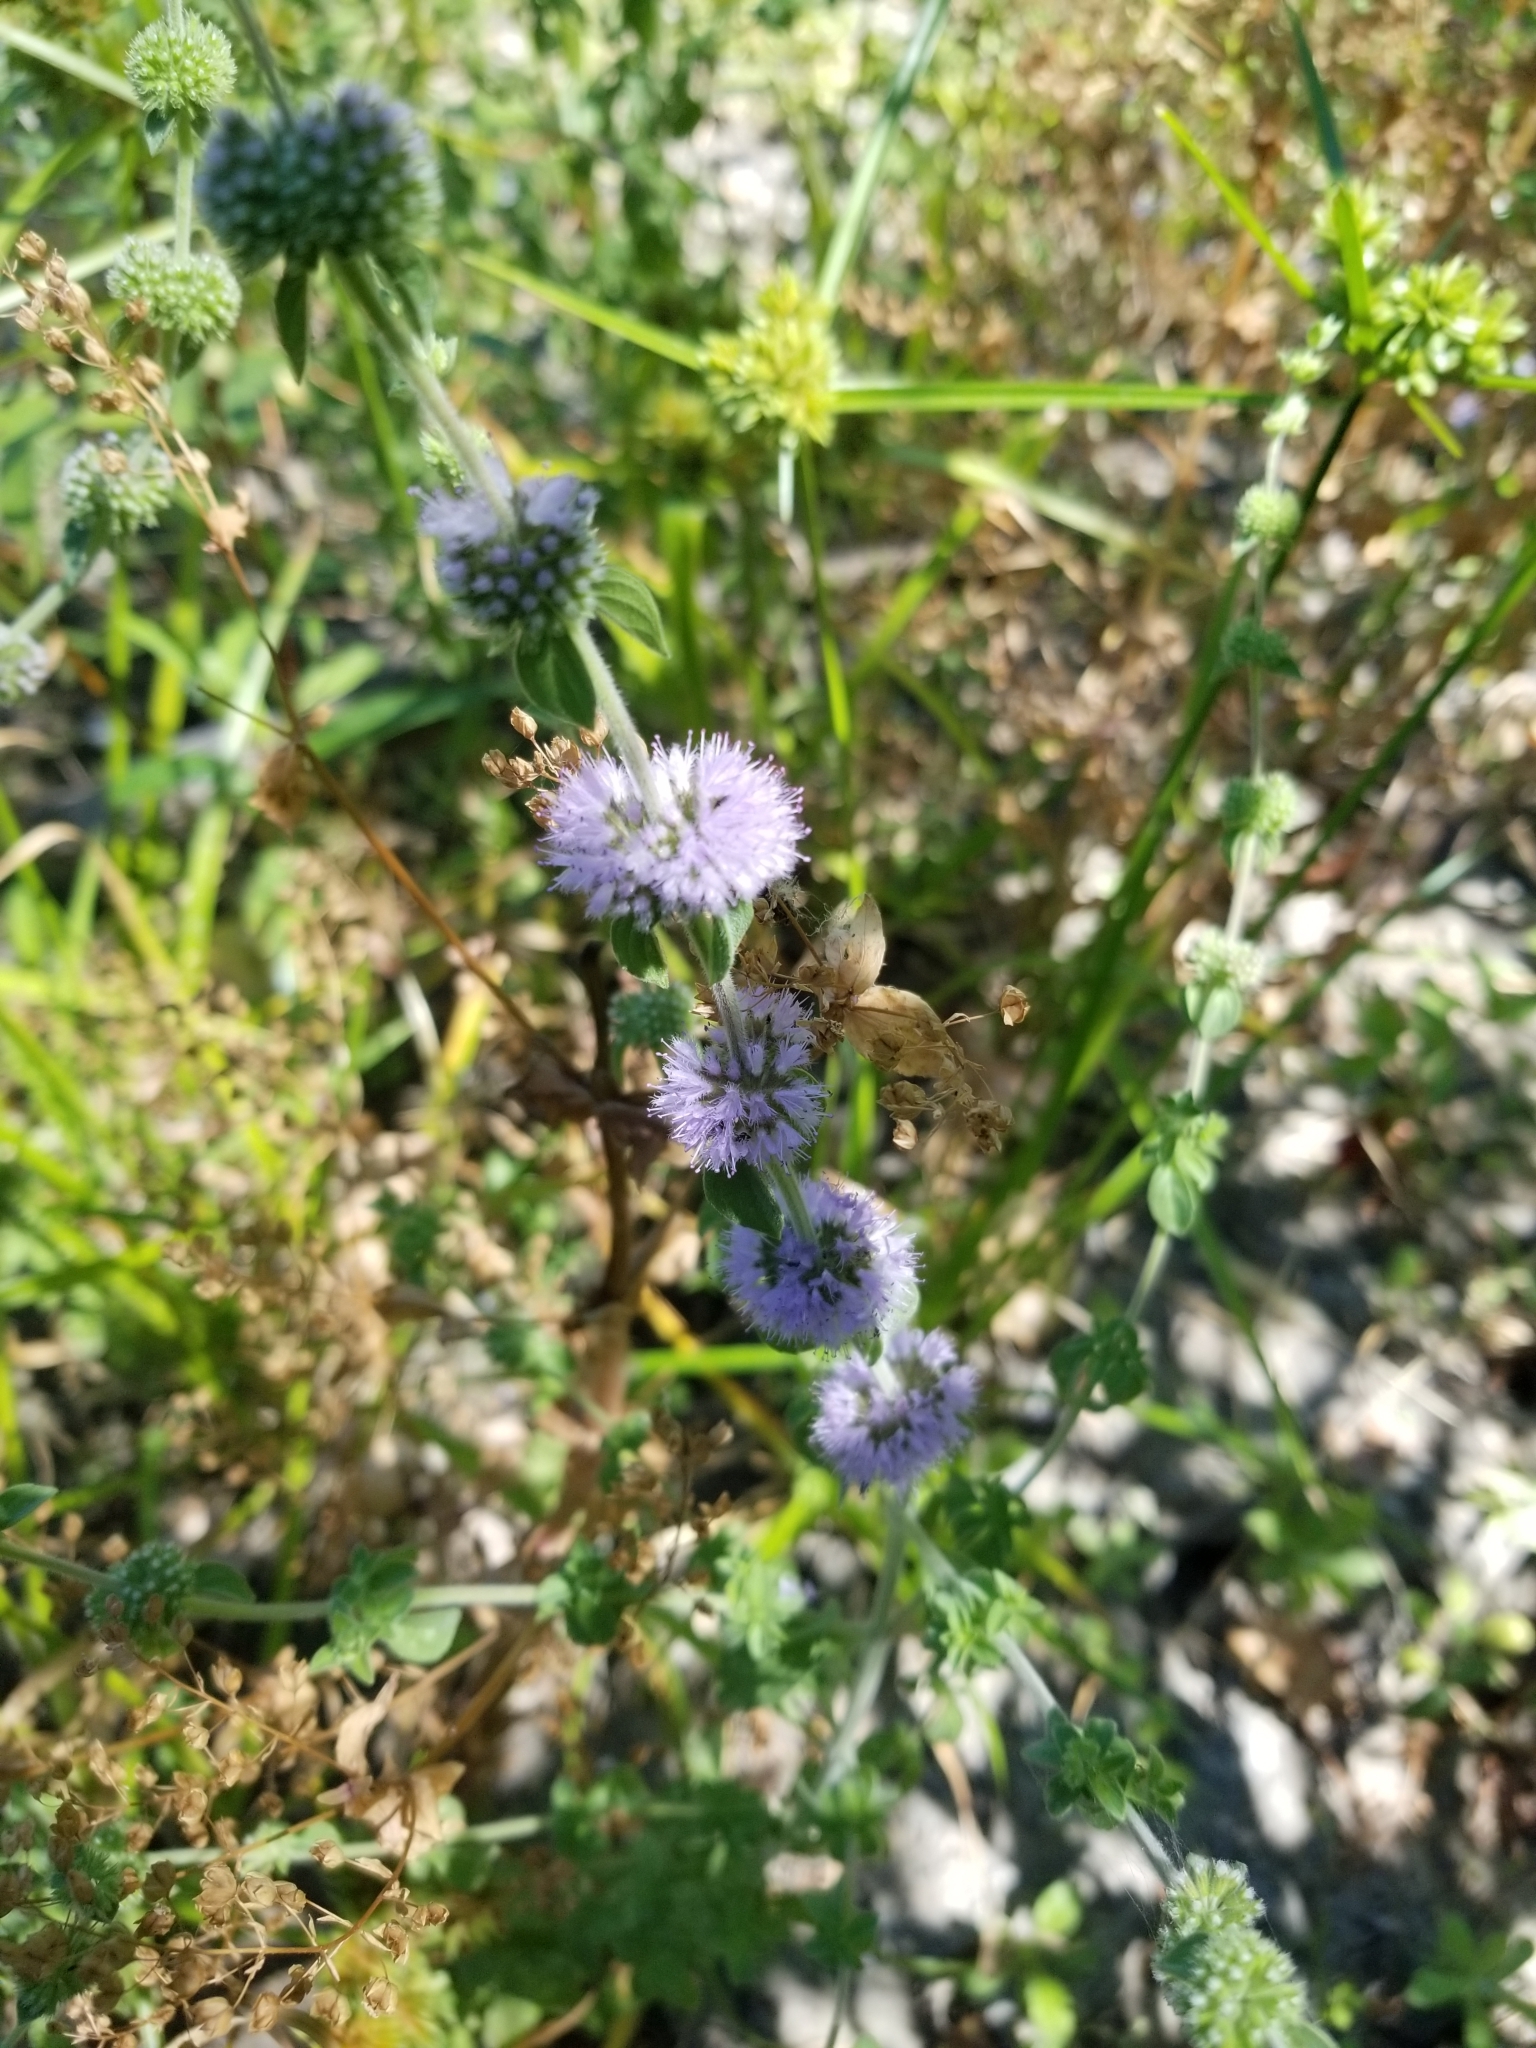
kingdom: Plantae
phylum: Tracheophyta
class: Magnoliopsida
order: Lamiales
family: Lamiaceae
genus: Mentha
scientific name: Mentha pulegium
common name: Pennyroyal
